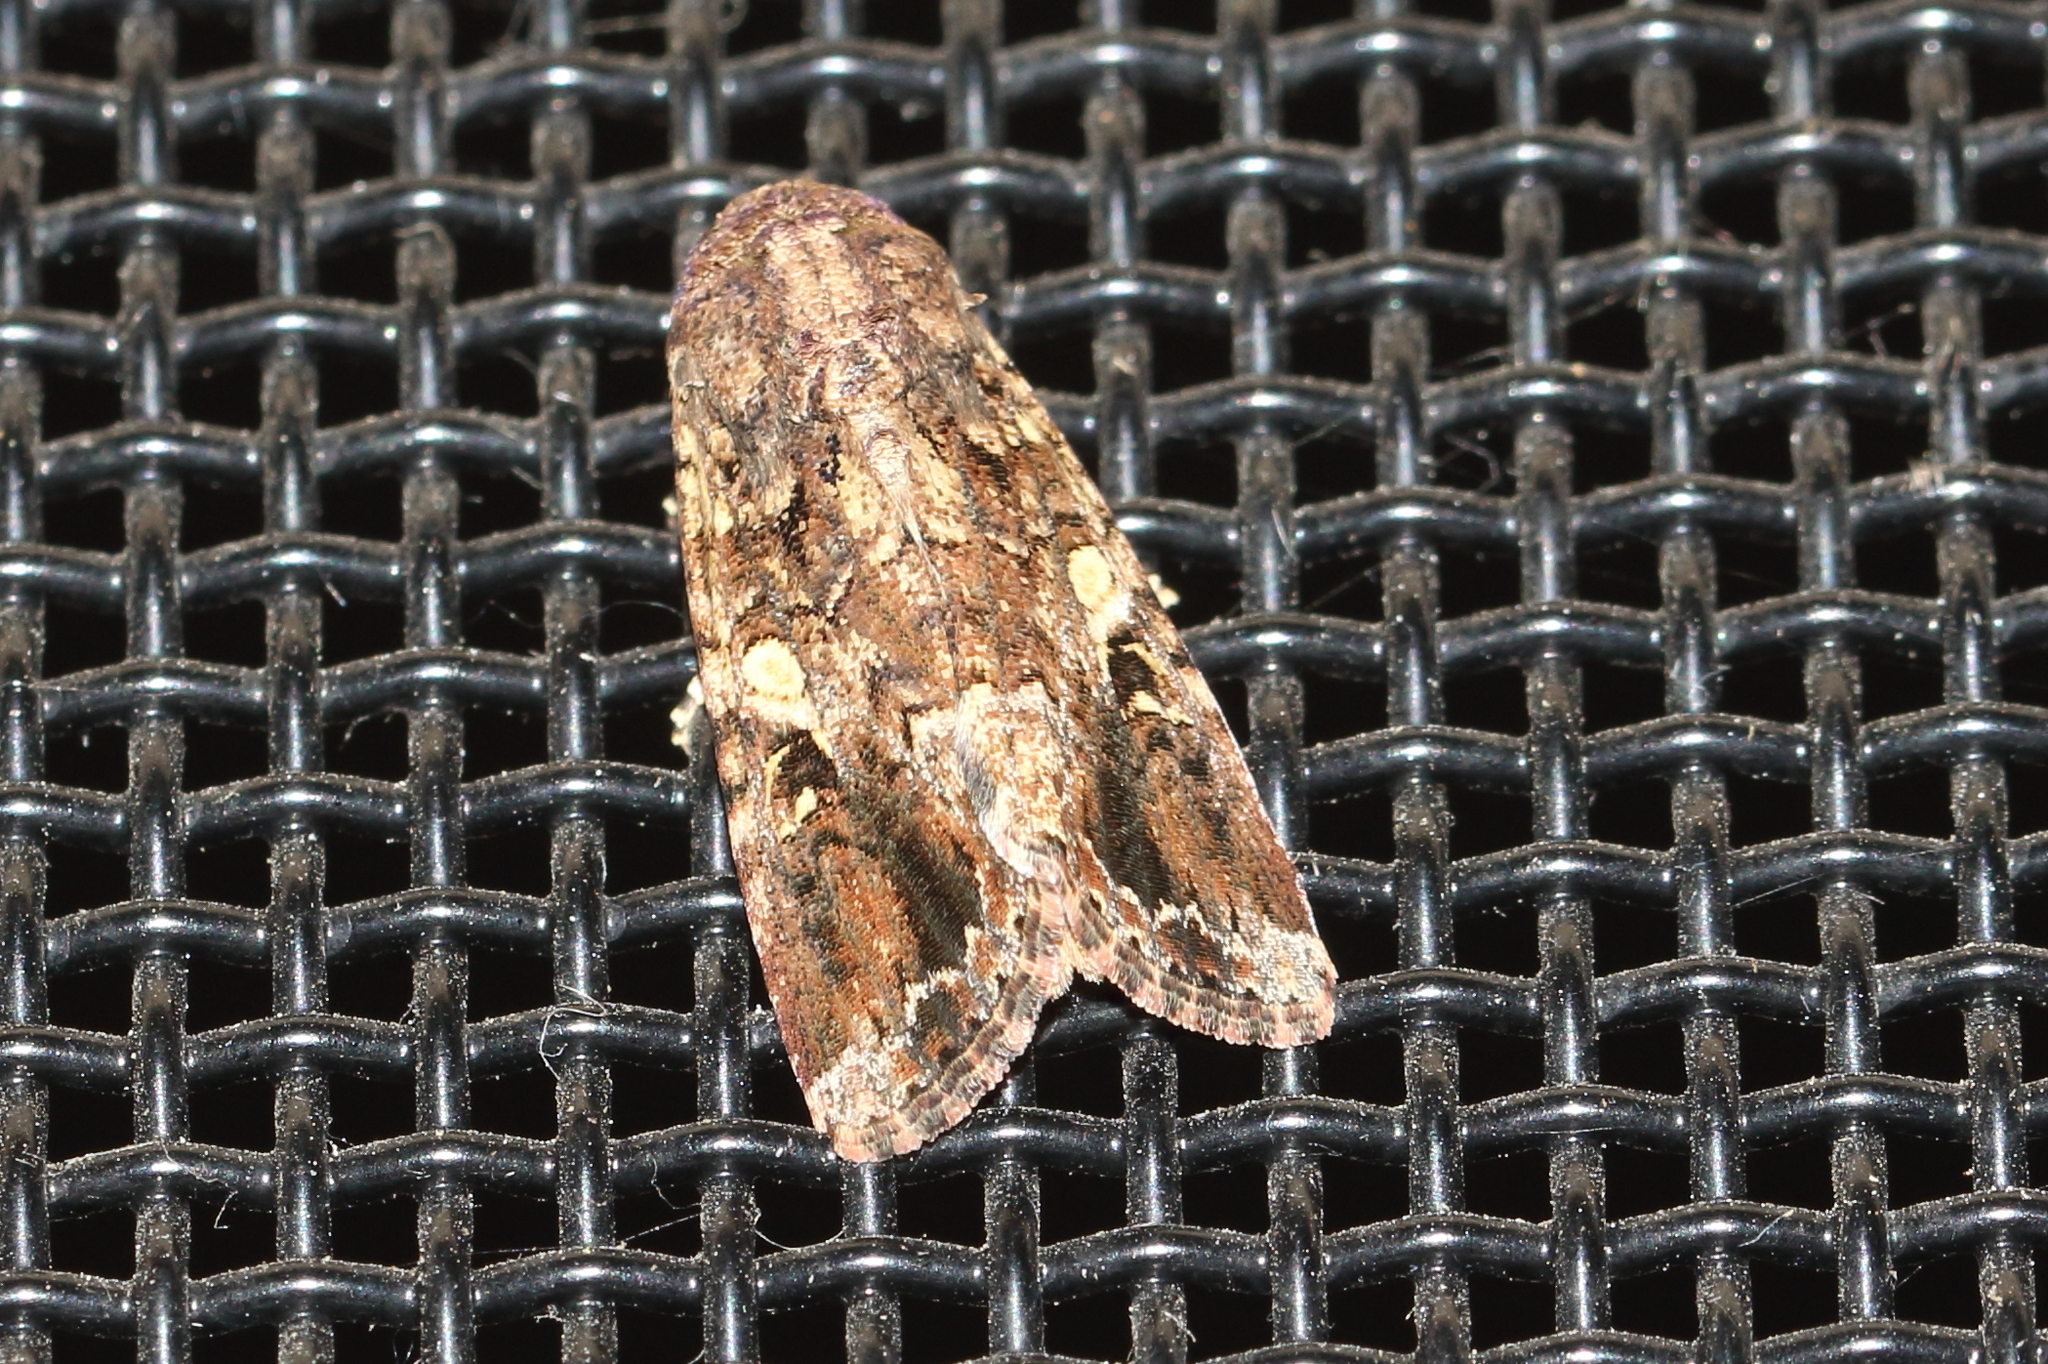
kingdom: Animalia
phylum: Arthropoda
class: Insecta
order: Lepidoptera
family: Noctuidae
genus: Spodoptera
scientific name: Spodoptera mauritia
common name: Lawn armyworm
